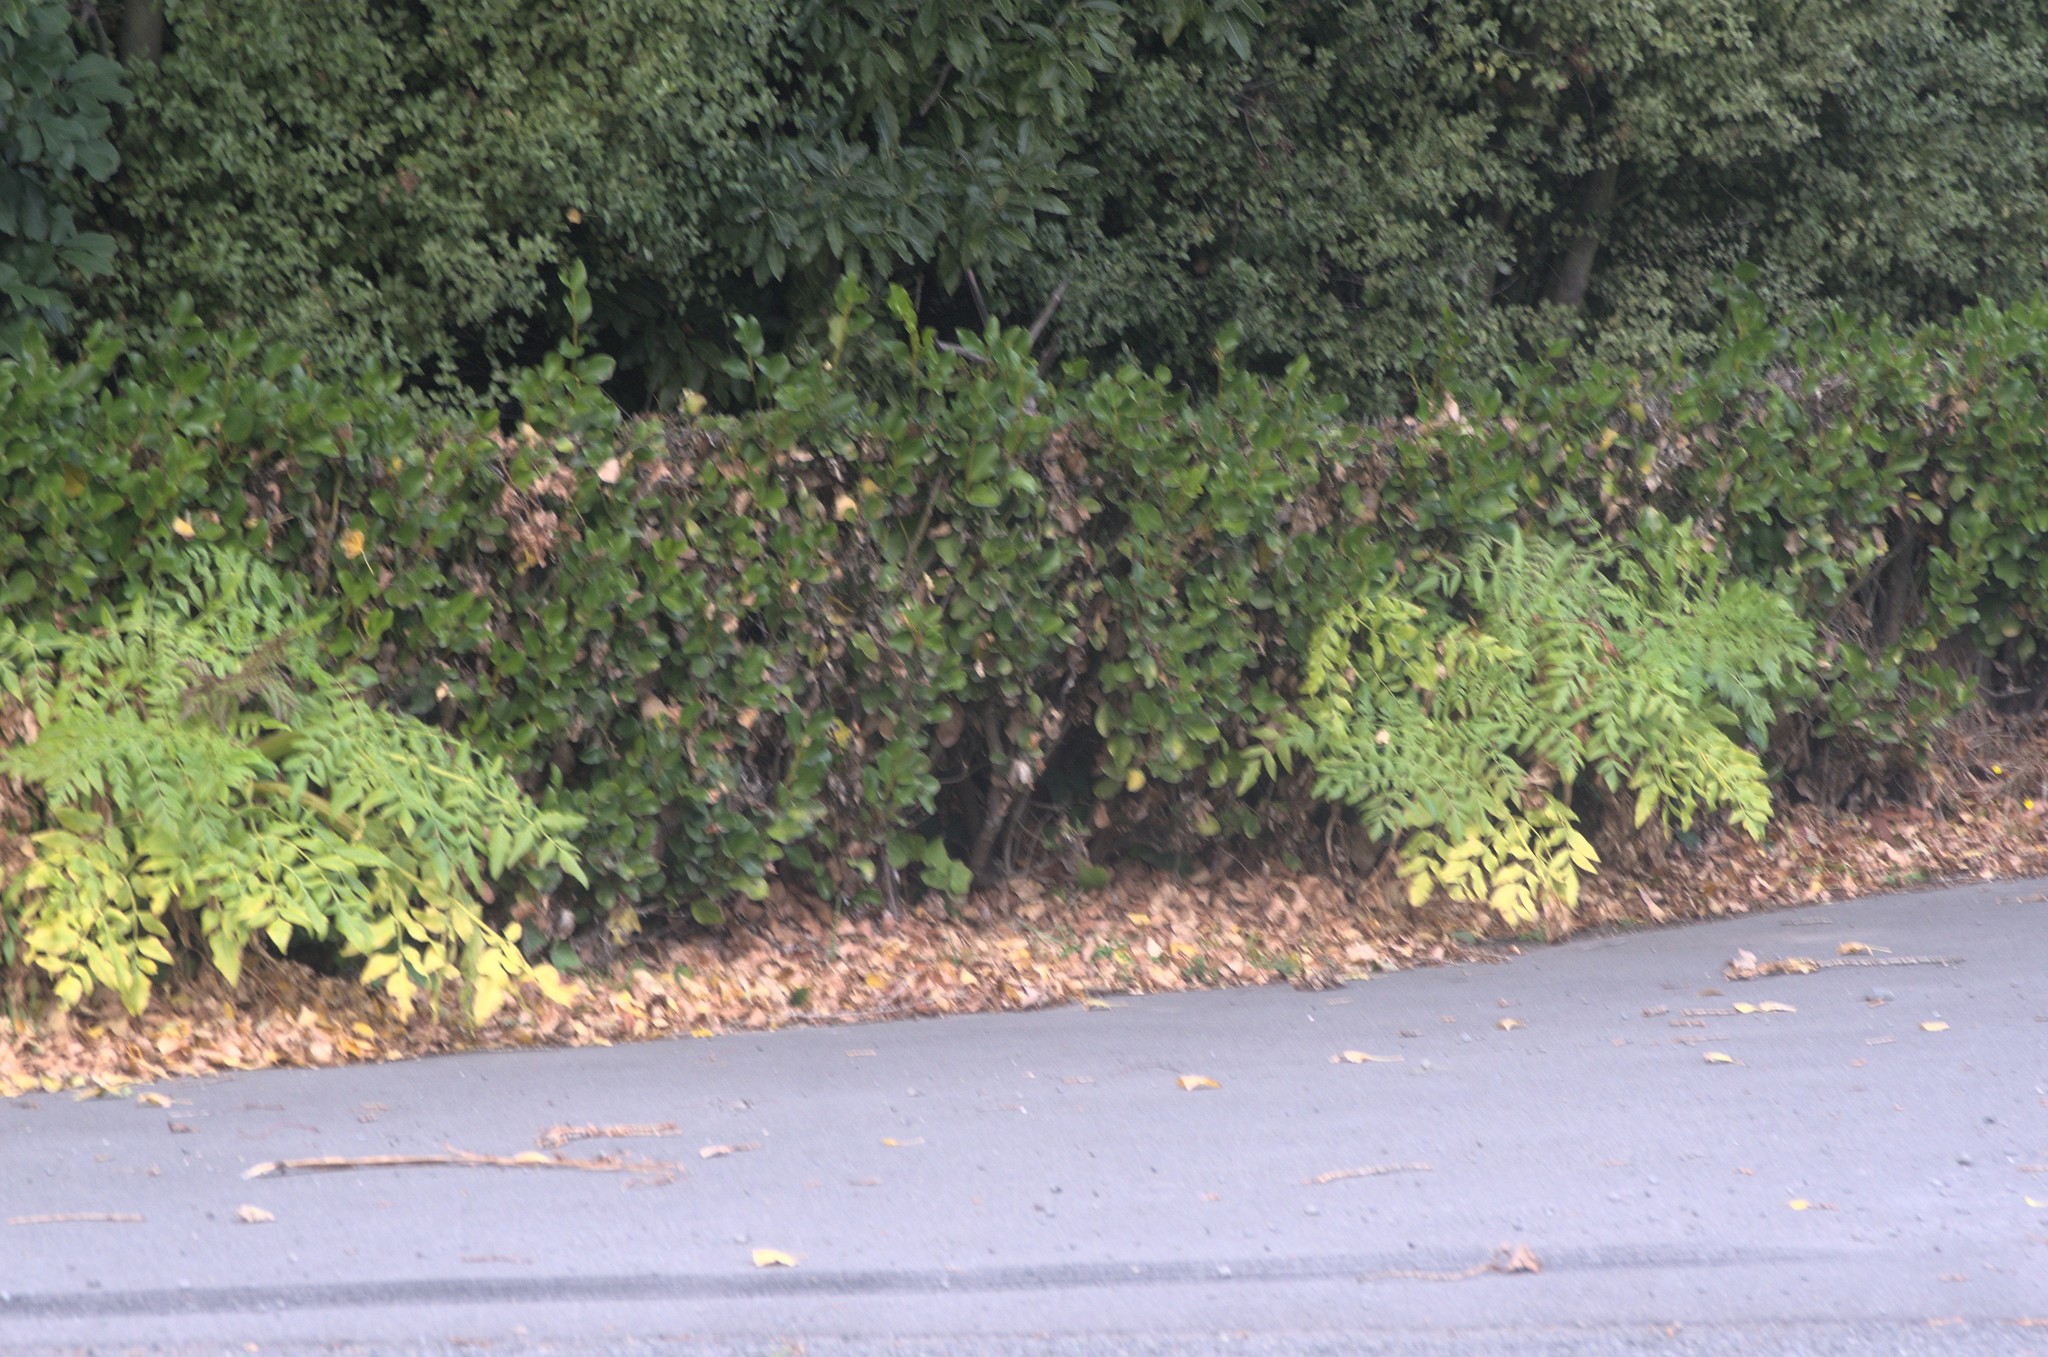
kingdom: Plantae
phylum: Tracheophyta
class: Magnoliopsida
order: Apiales
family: Apiaceae
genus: Daucus
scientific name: Daucus decipiens
